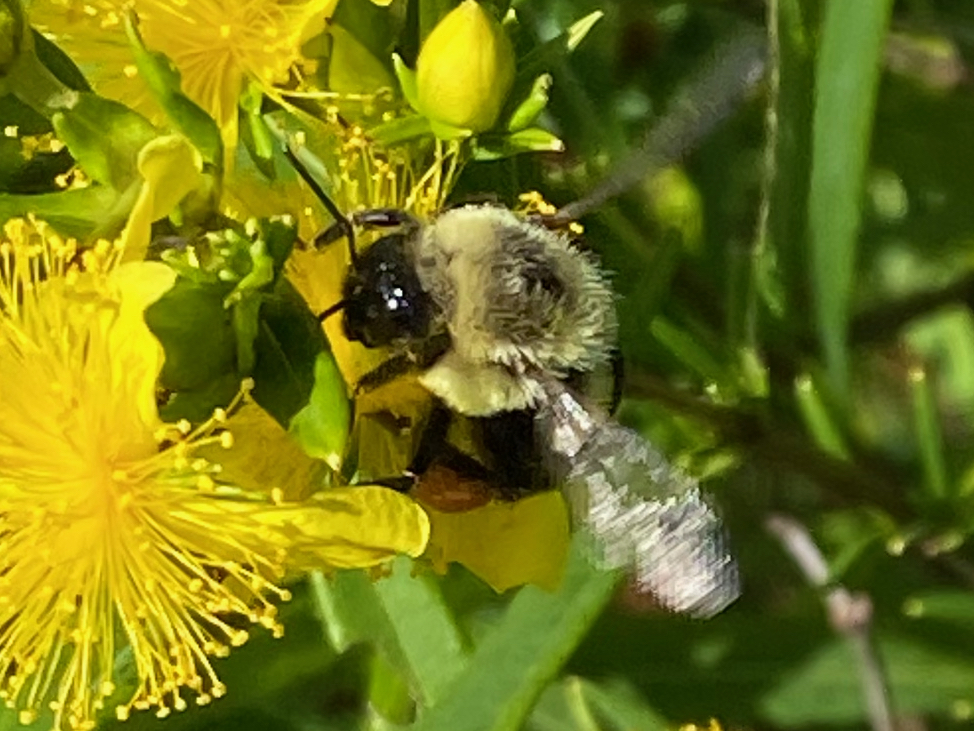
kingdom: Animalia
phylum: Arthropoda
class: Insecta
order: Hymenoptera
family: Apidae
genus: Bombus
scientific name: Bombus impatiens
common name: Common eastern bumble bee
